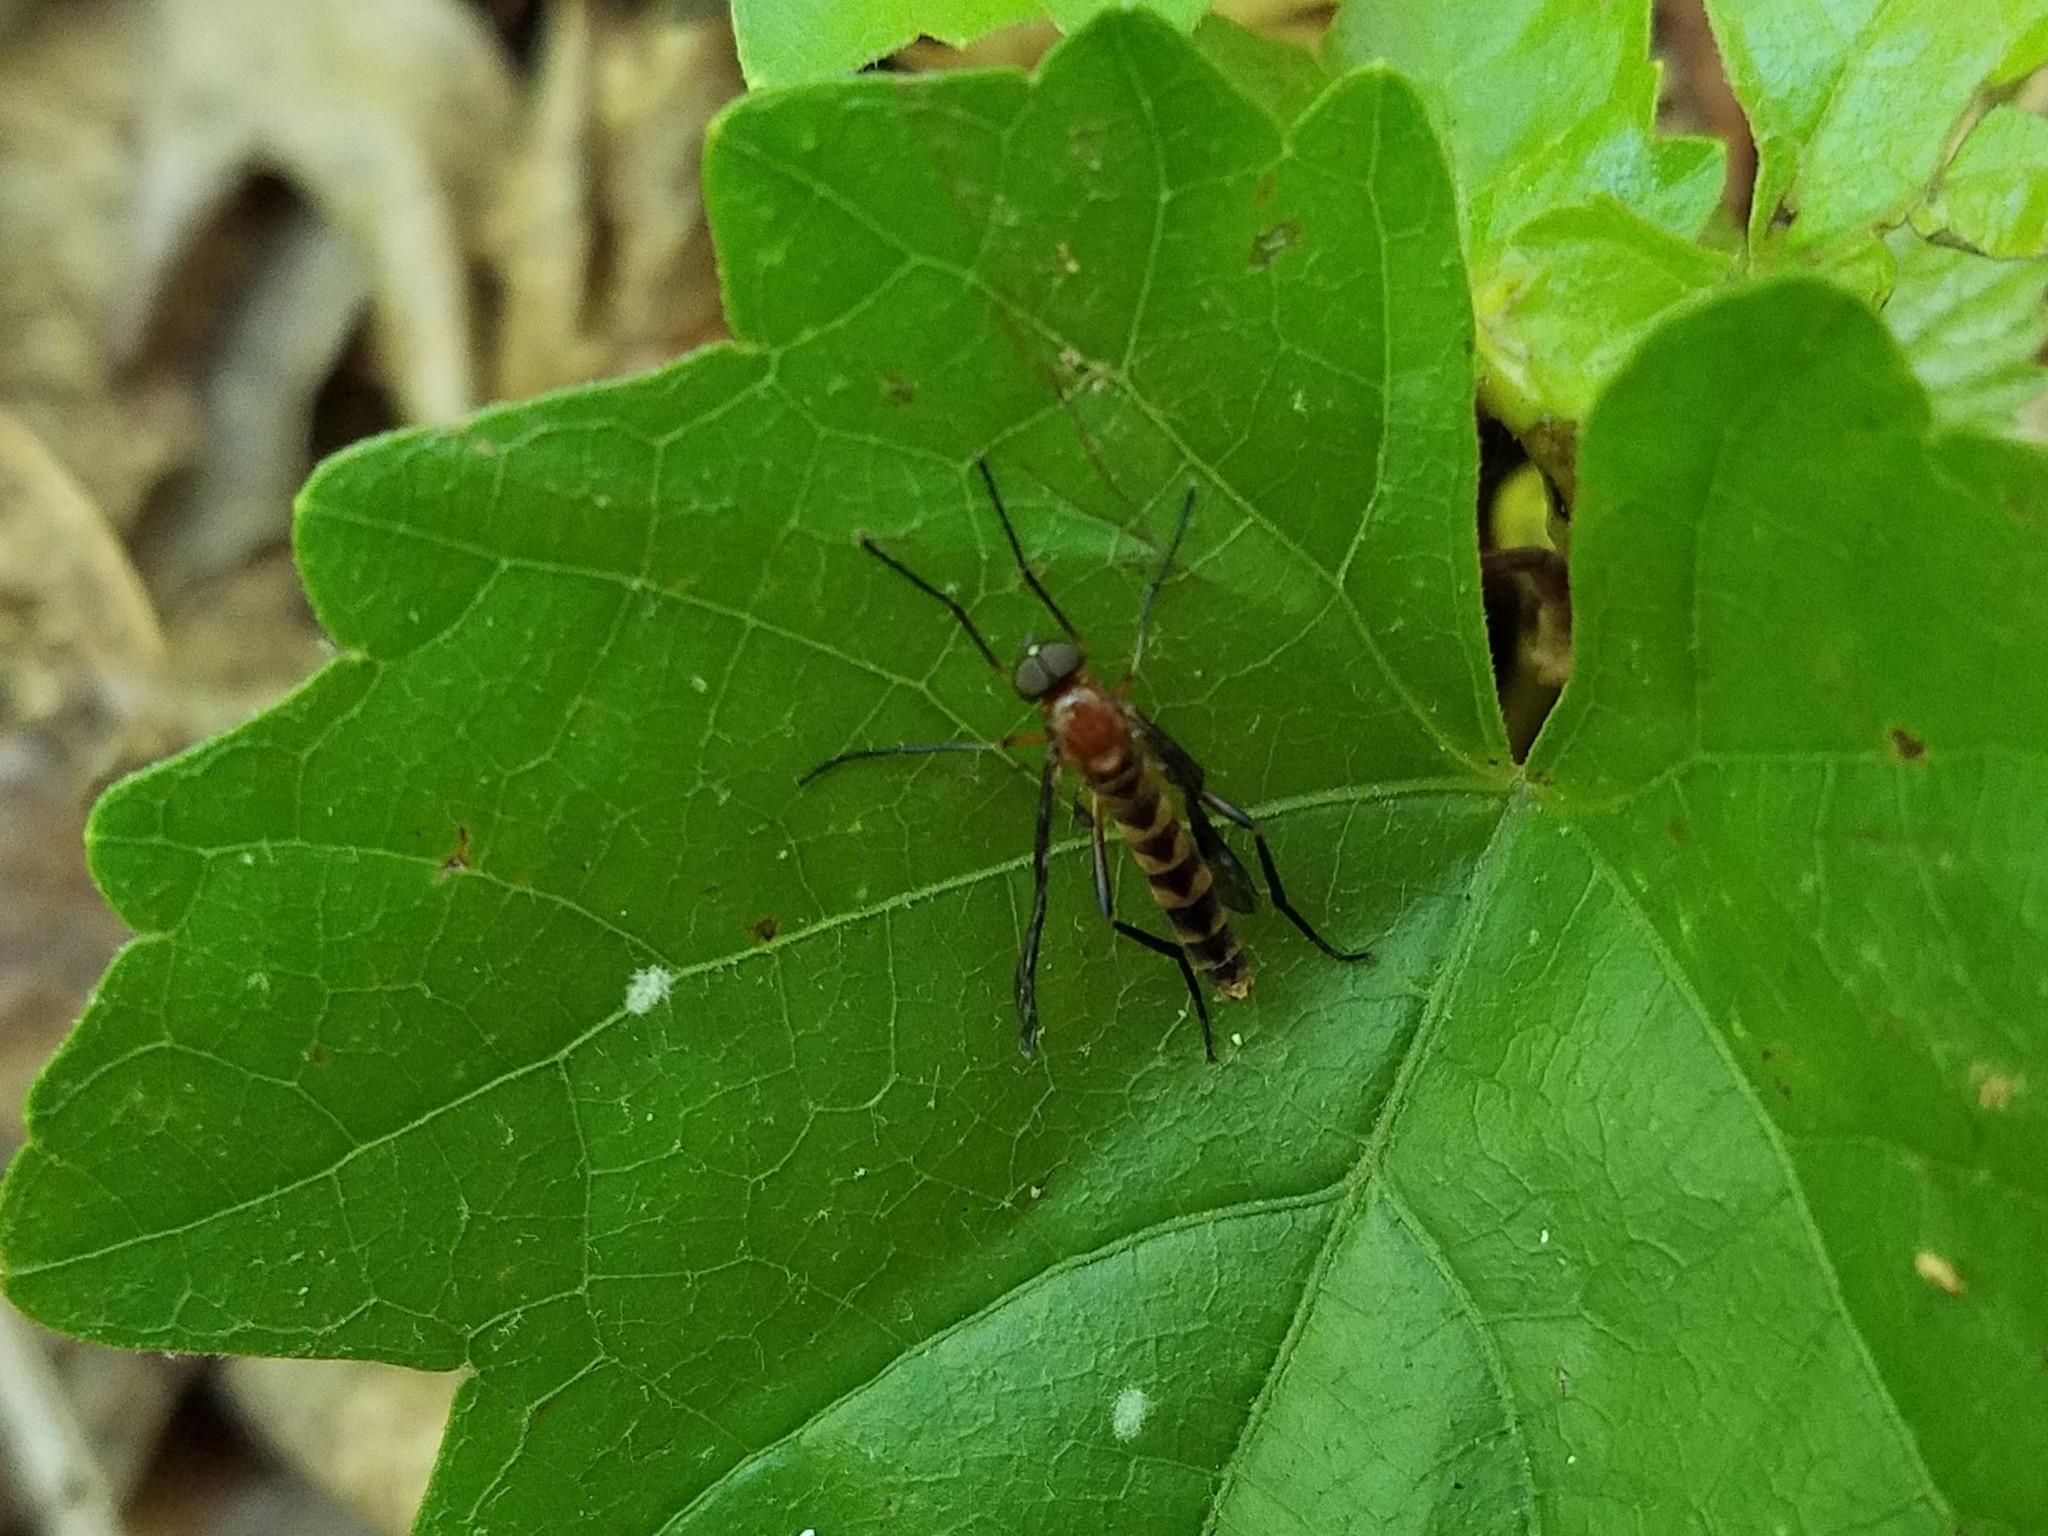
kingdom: Animalia
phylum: Arthropoda
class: Insecta
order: Diptera
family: Xylophagidae
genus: Dialysis
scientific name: Dialysis fasciventris
